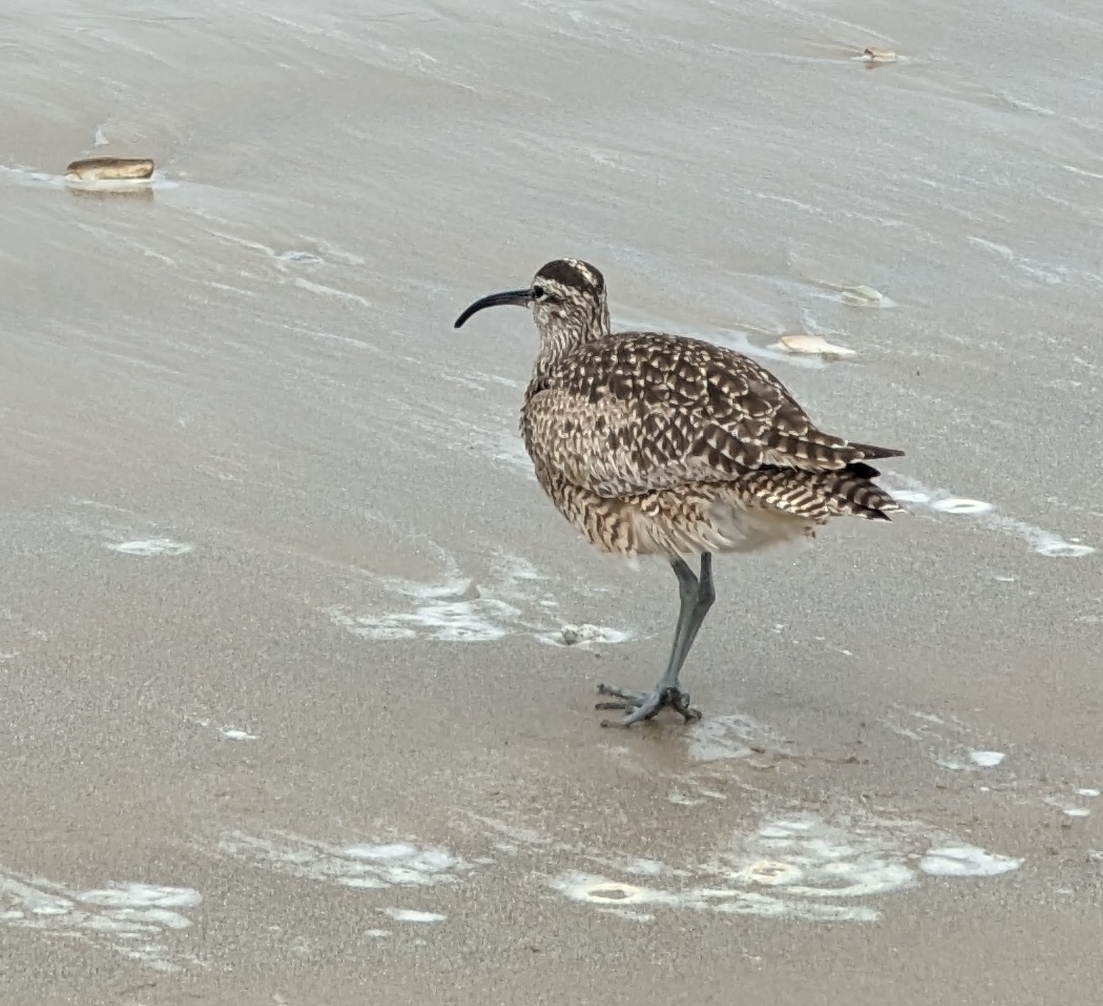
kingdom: Animalia
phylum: Chordata
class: Aves
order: Charadriiformes
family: Scolopacidae
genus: Numenius
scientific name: Numenius phaeopus
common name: Whimbrel
